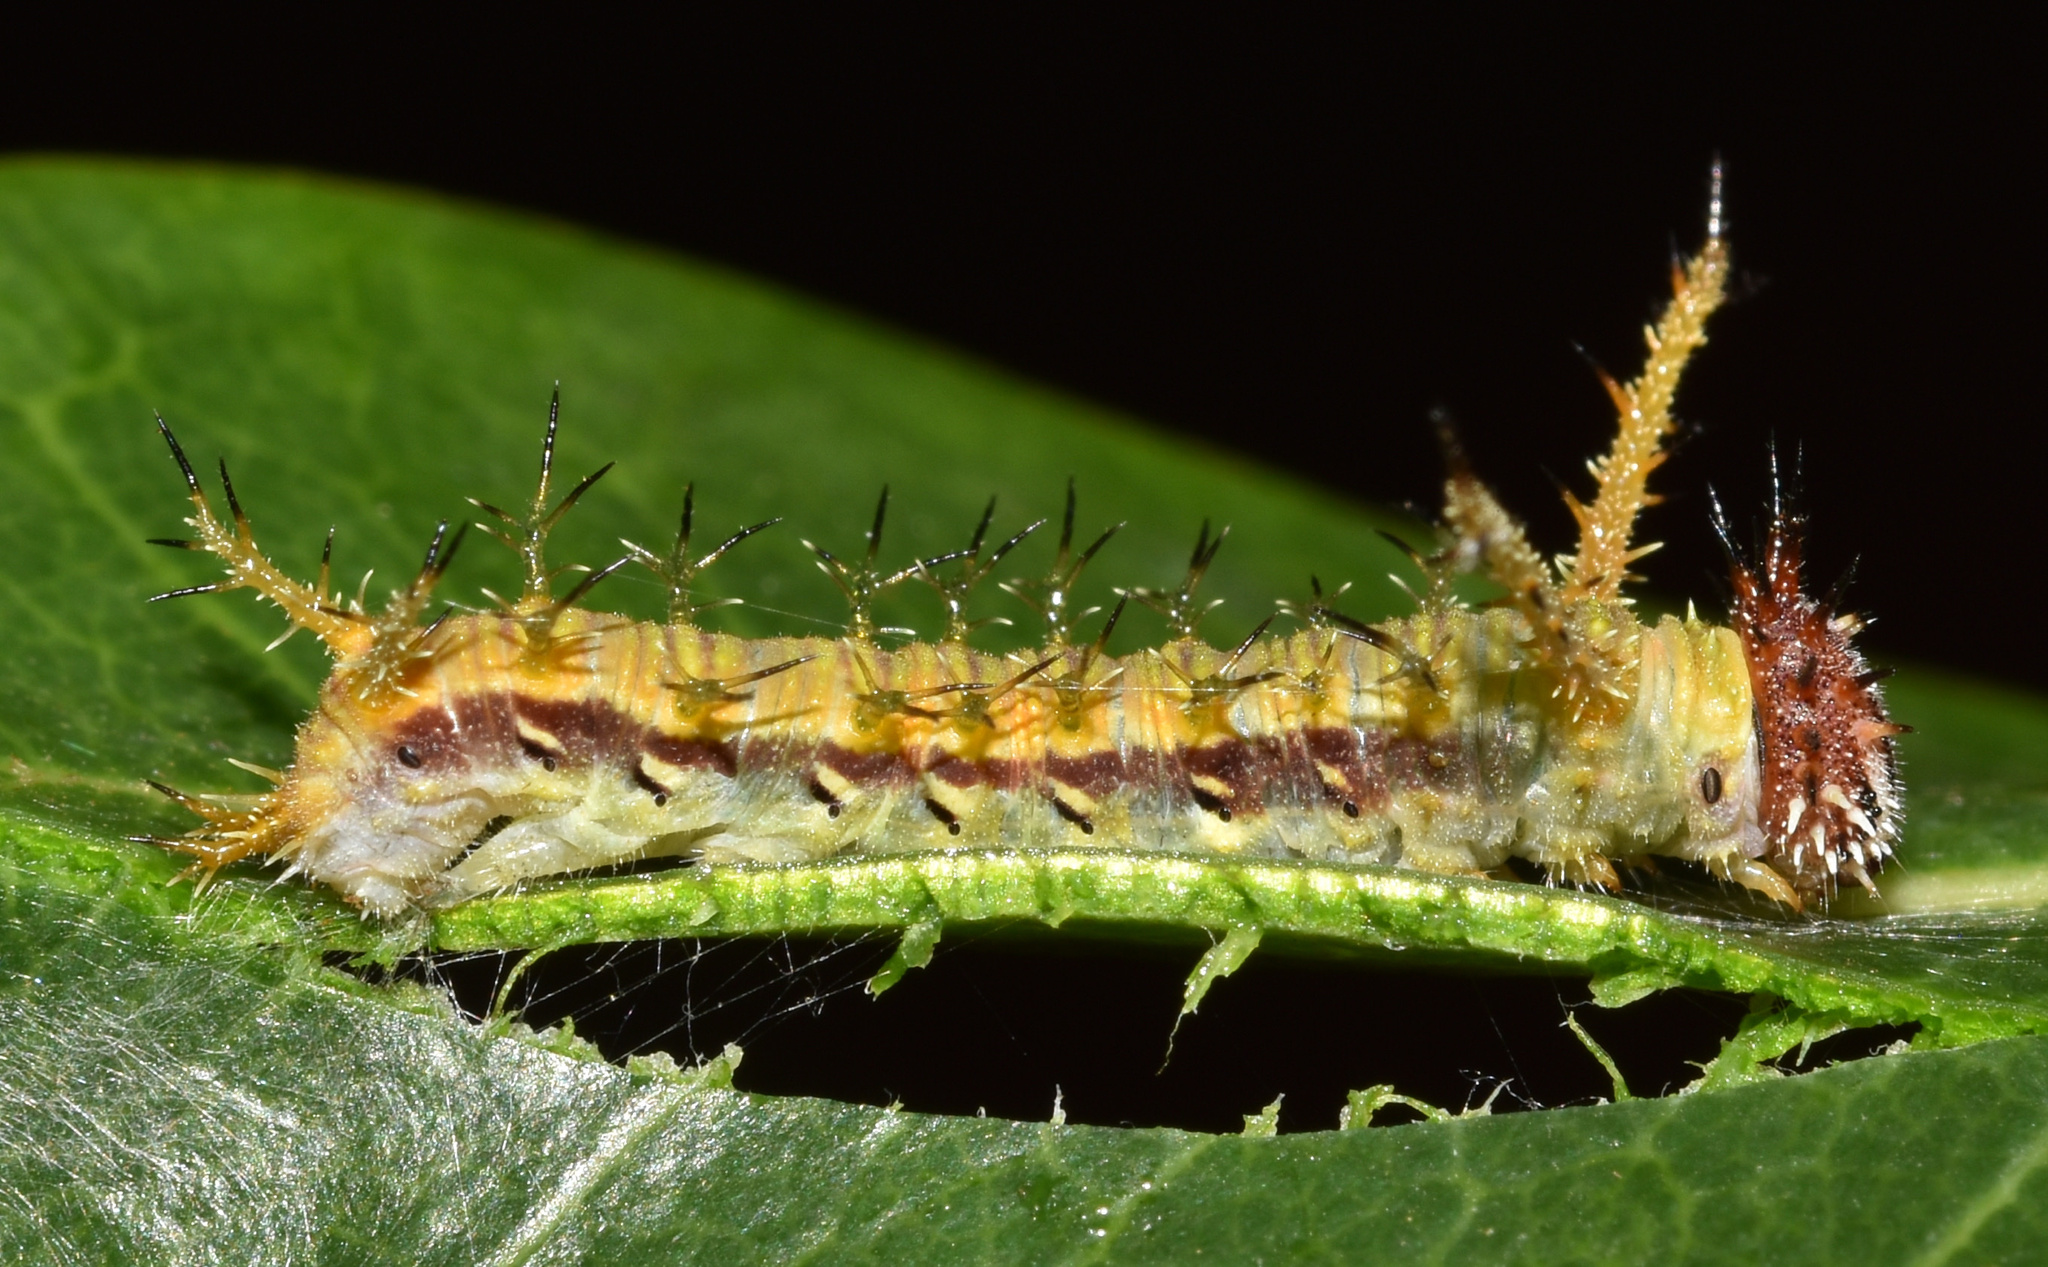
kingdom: Animalia
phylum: Arthropoda
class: Insecta
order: Lepidoptera
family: Nymphalidae
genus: Chloropoea
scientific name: Chloropoea lucretia
